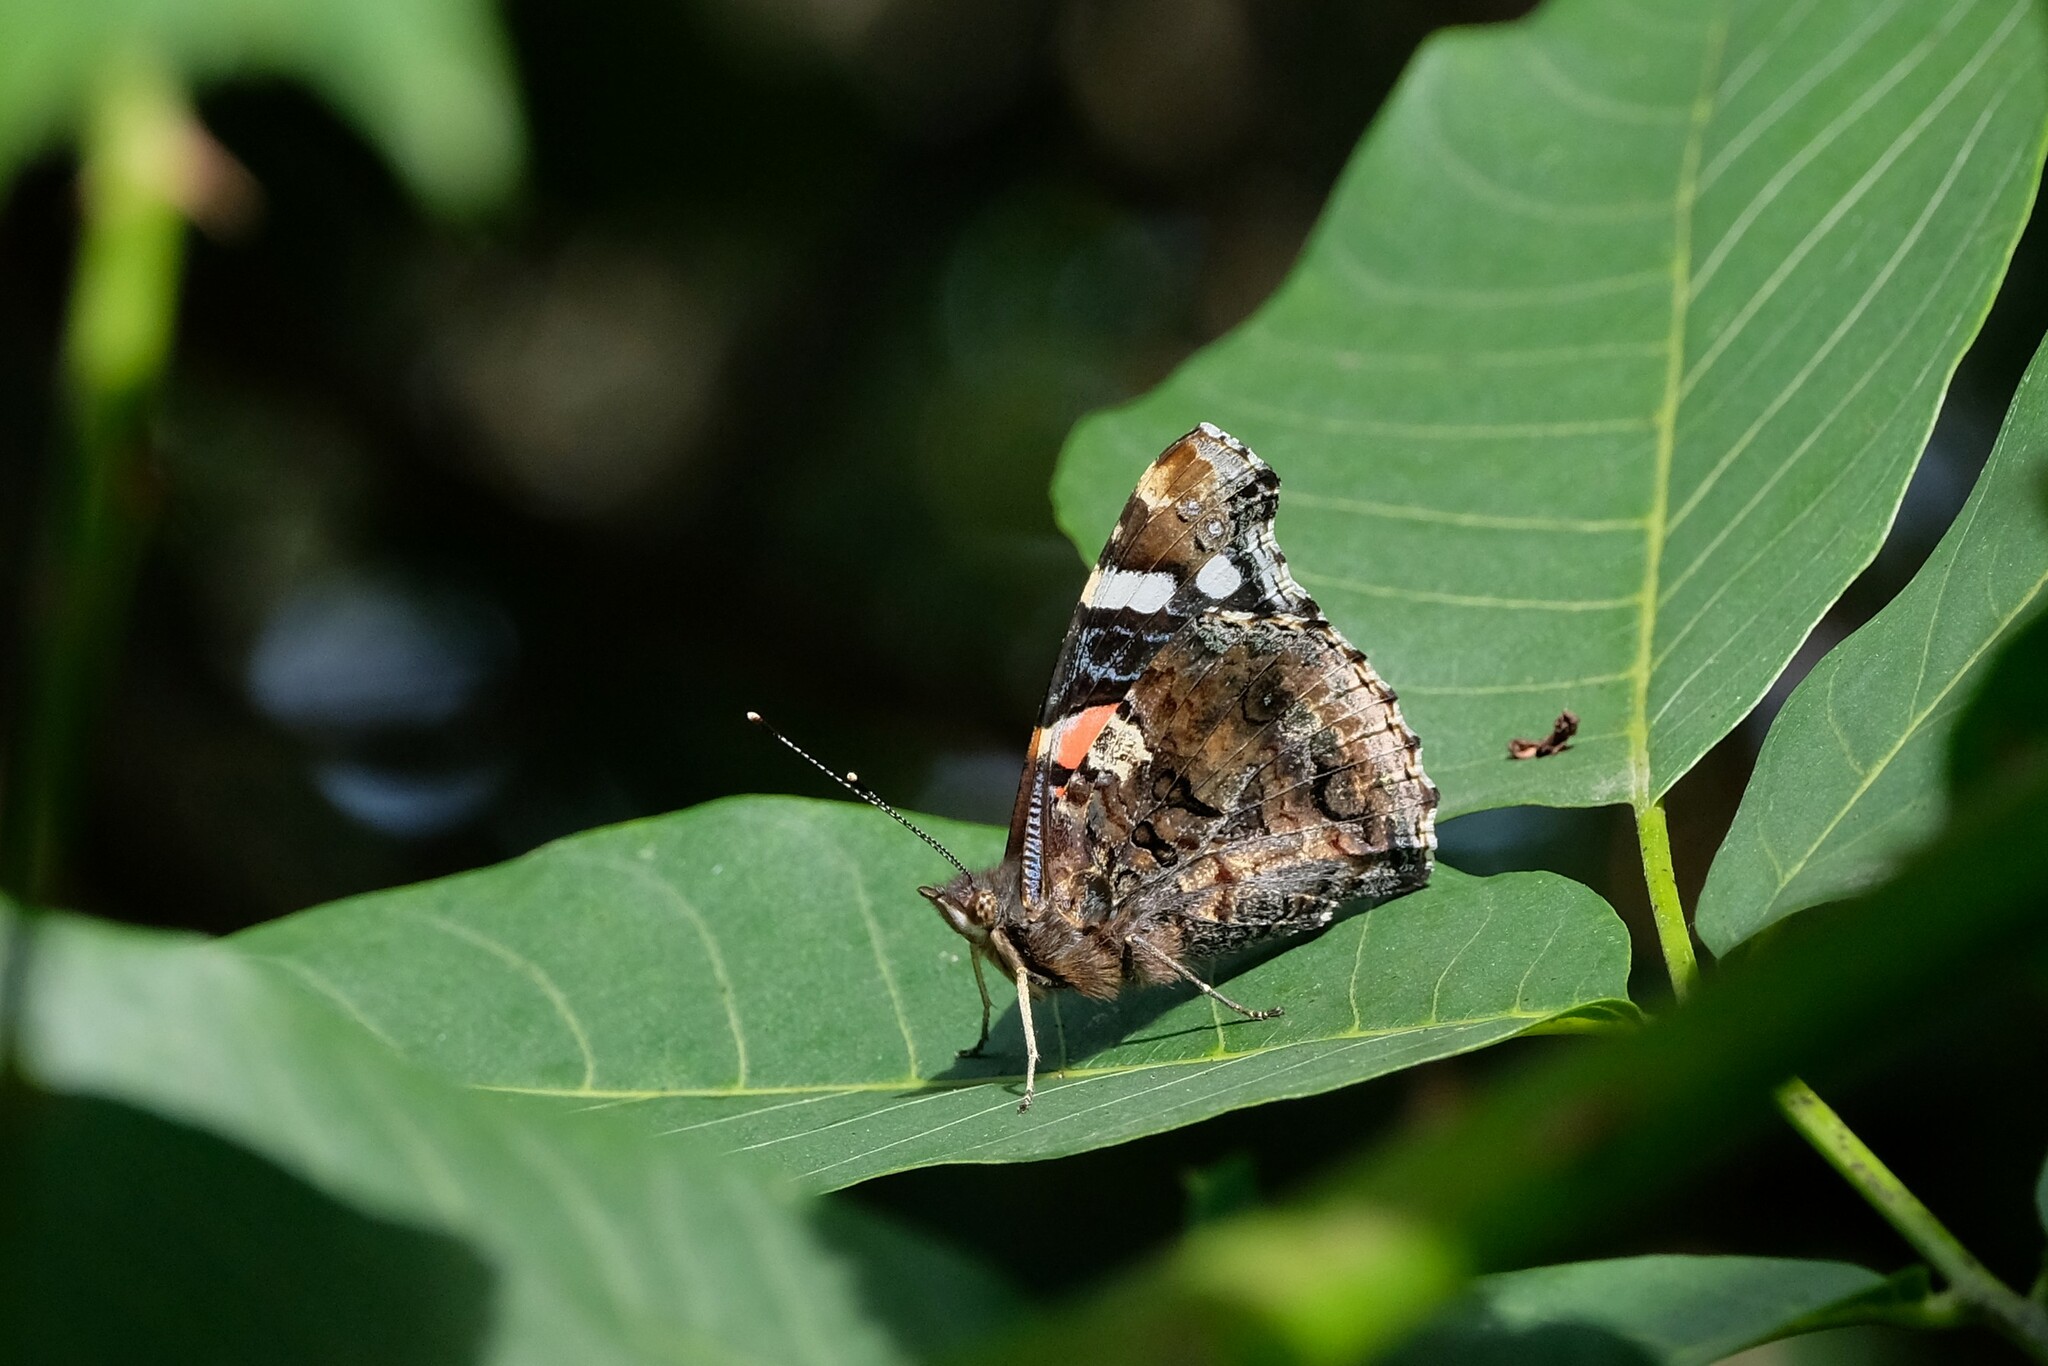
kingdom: Animalia
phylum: Arthropoda
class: Insecta
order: Lepidoptera
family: Nymphalidae
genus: Vanessa
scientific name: Vanessa atalanta
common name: Red admiral
